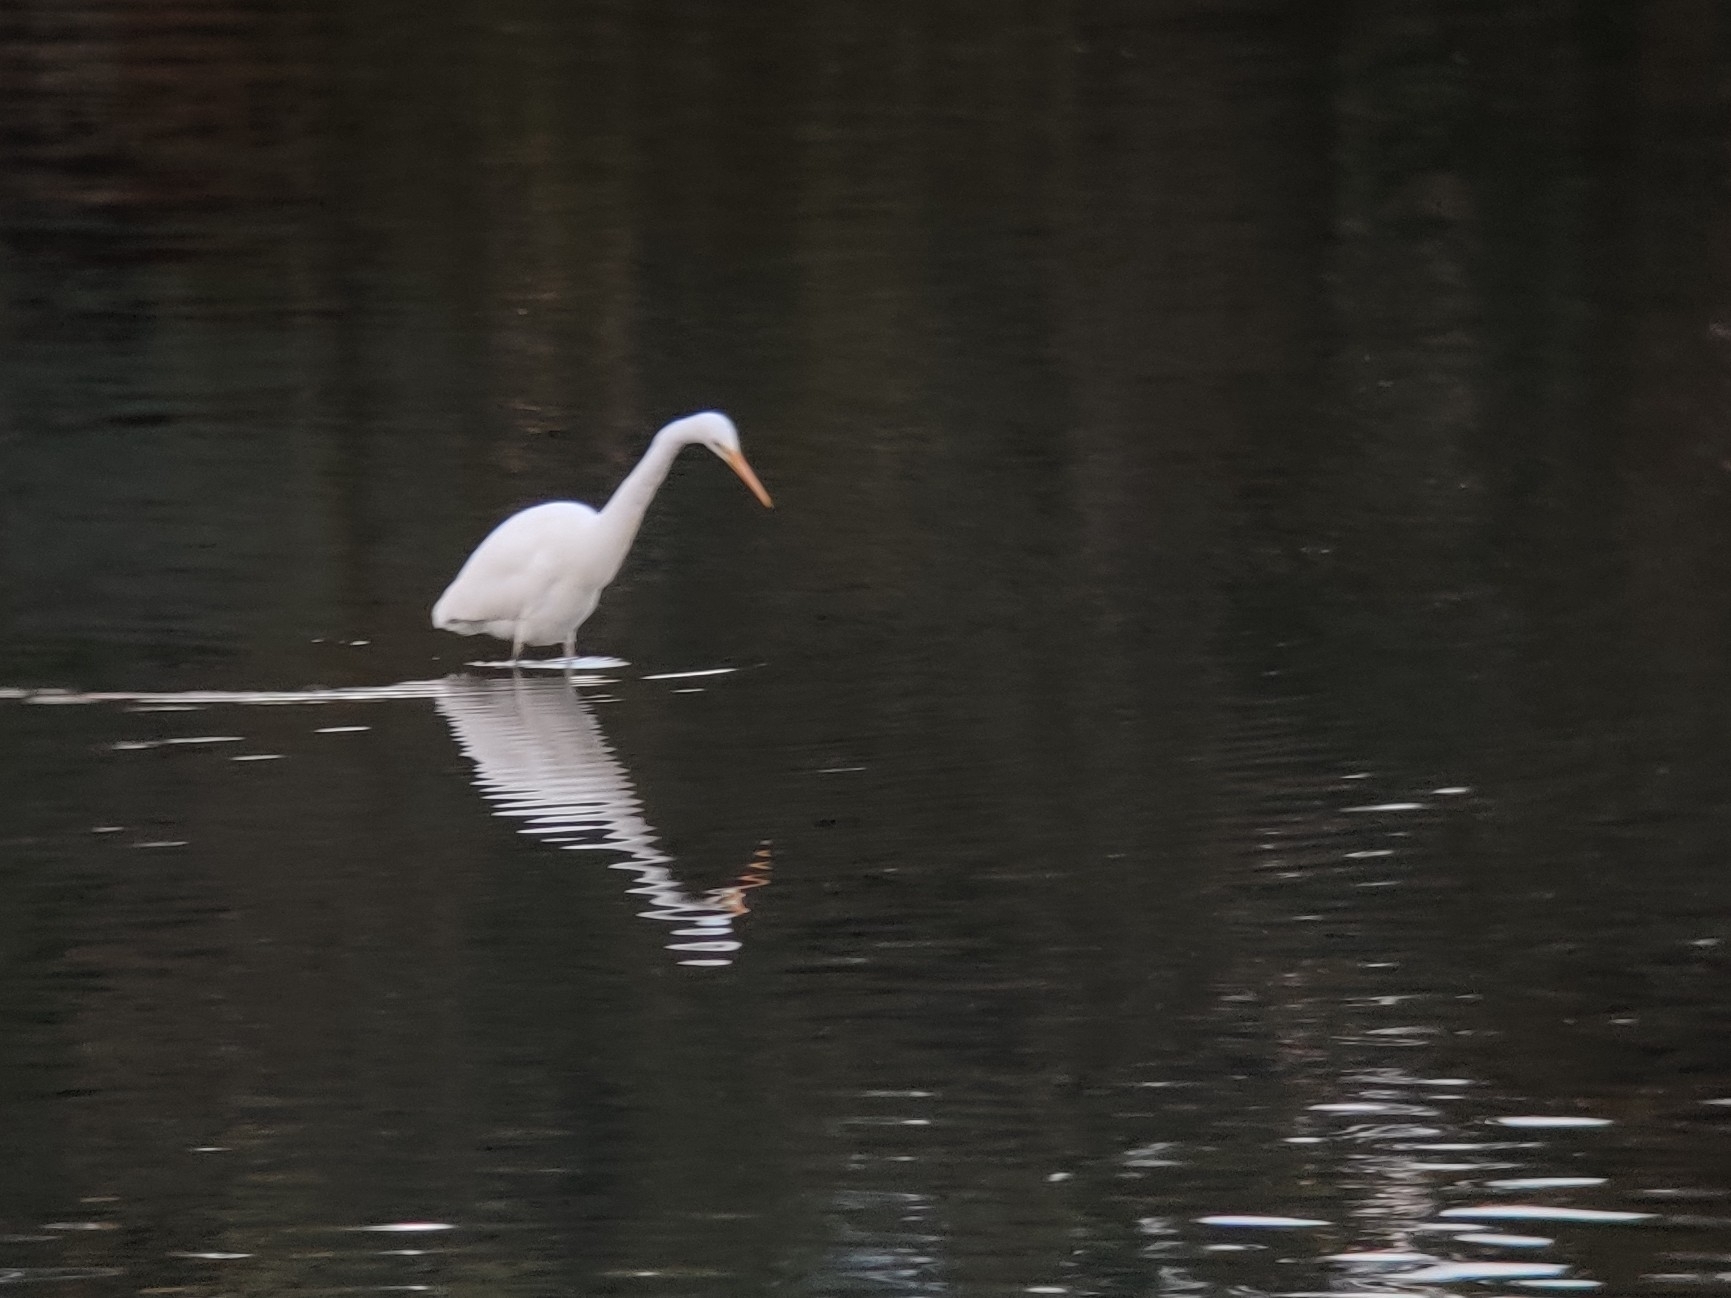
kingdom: Animalia
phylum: Chordata
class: Aves
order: Pelecaniformes
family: Ardeidae
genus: Ardea
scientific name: Ardea alba
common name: Great egret
